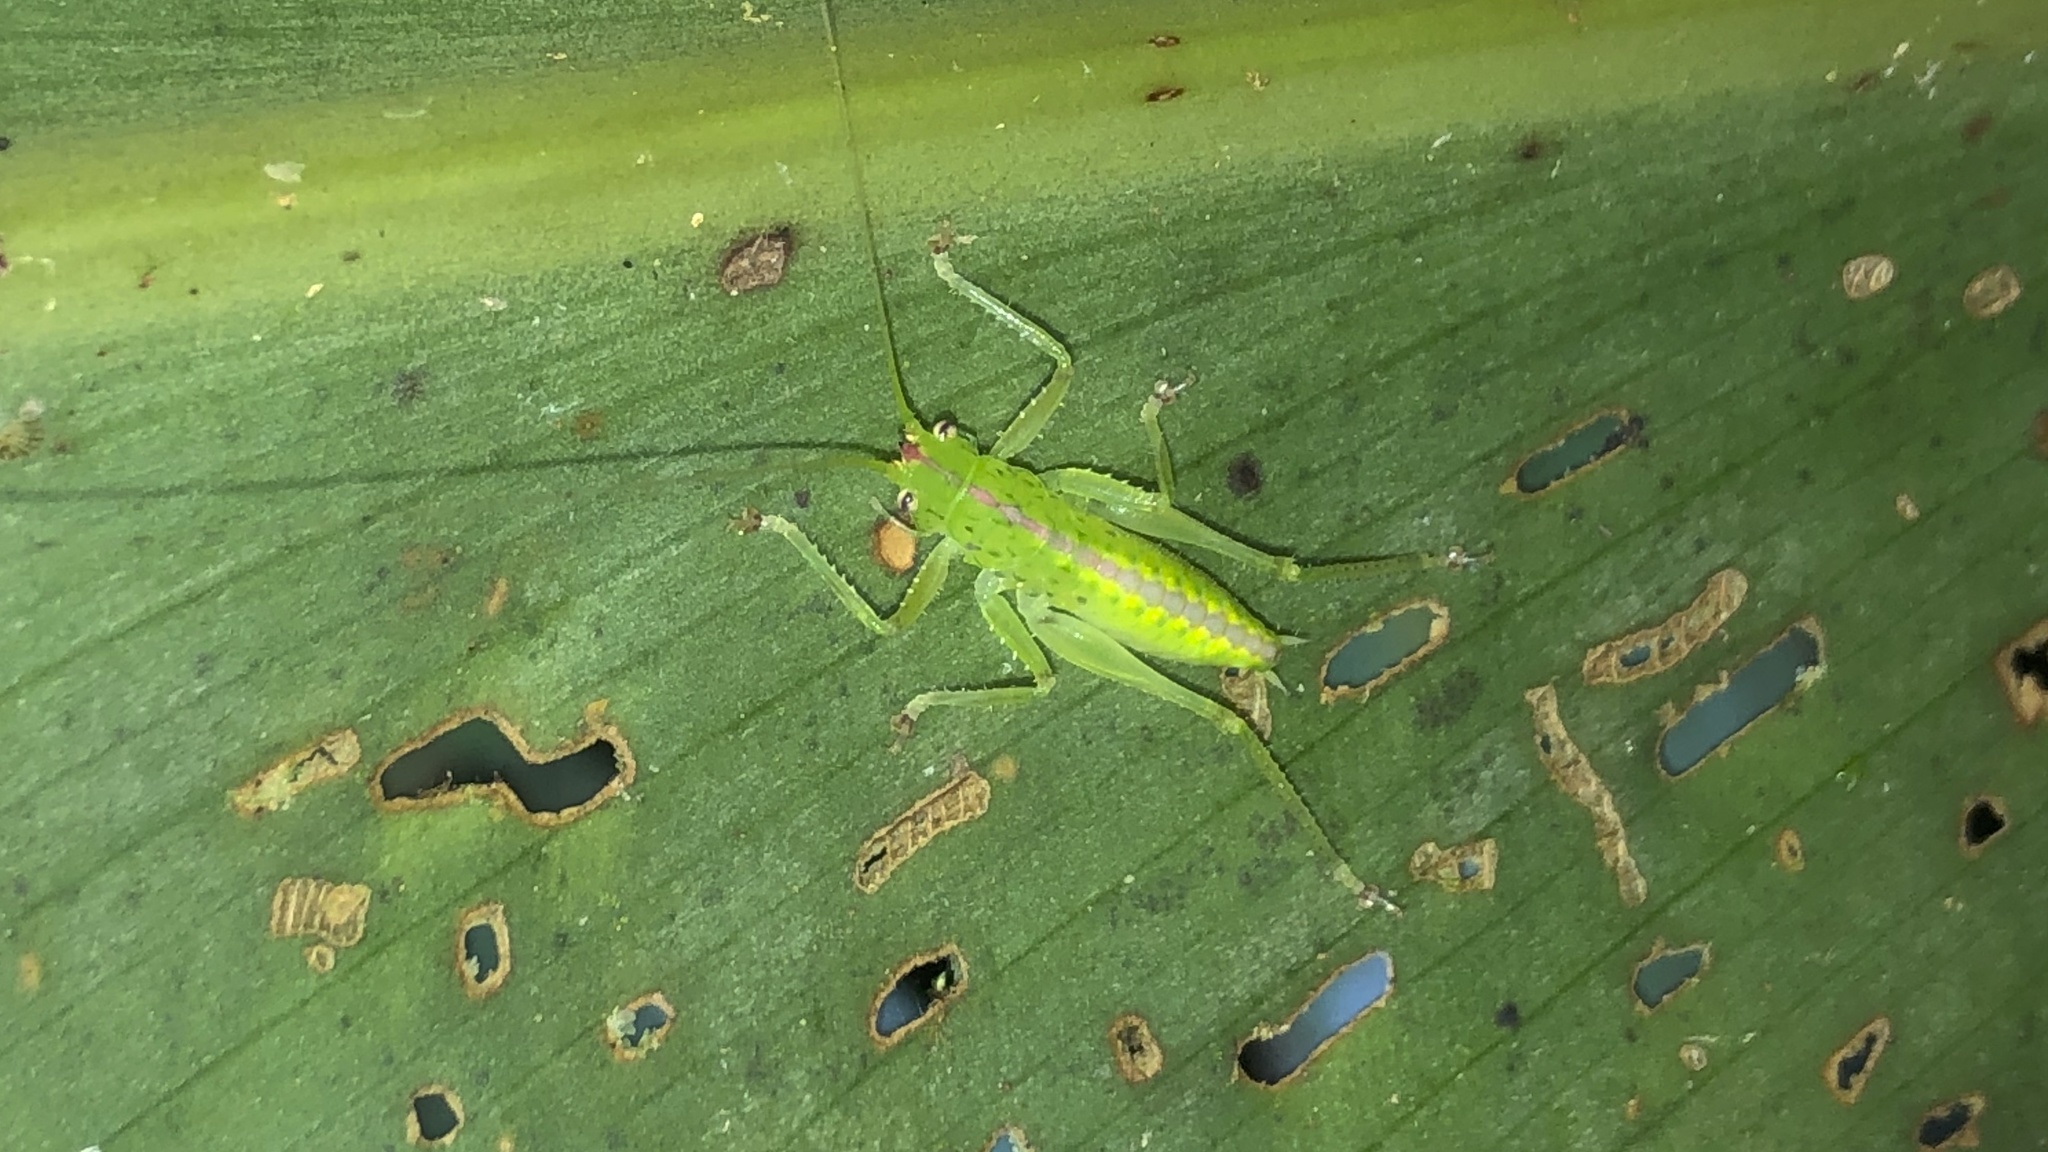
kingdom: Animalia
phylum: Arthropoda
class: Insecta
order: Orthoptera
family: Tettigoniidae
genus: Copiphora
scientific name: Copiphora rhinoceros
